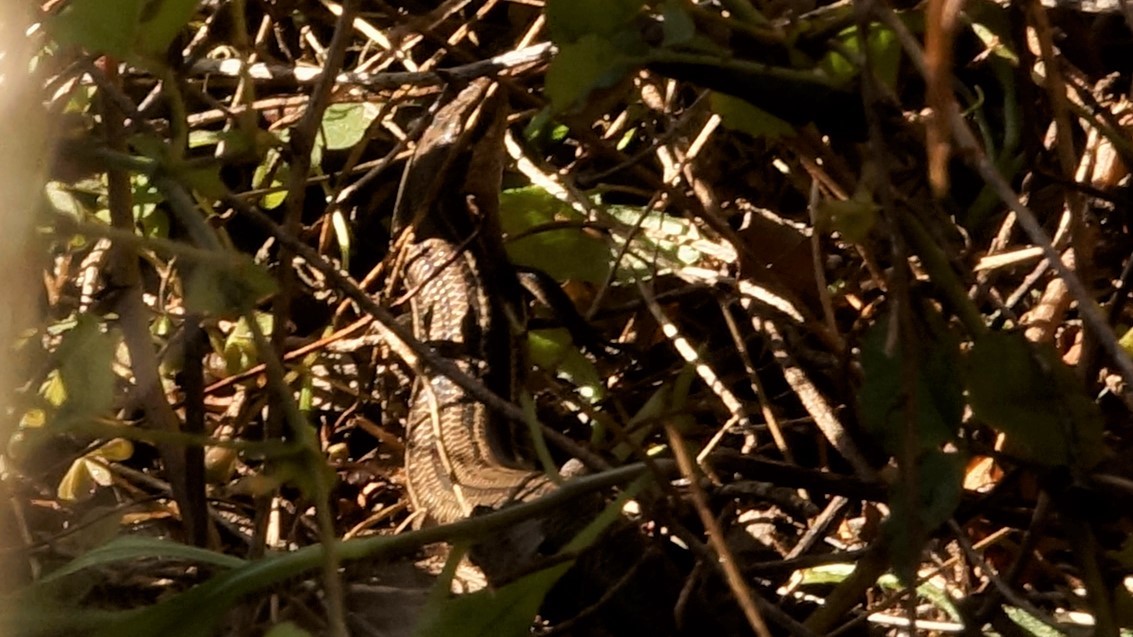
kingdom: Animalia
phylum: Chordata
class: Squamata
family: Scincidae
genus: Acritoscincus
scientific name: Acritoscincus duperreyi
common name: Bold-striped cool-skink
